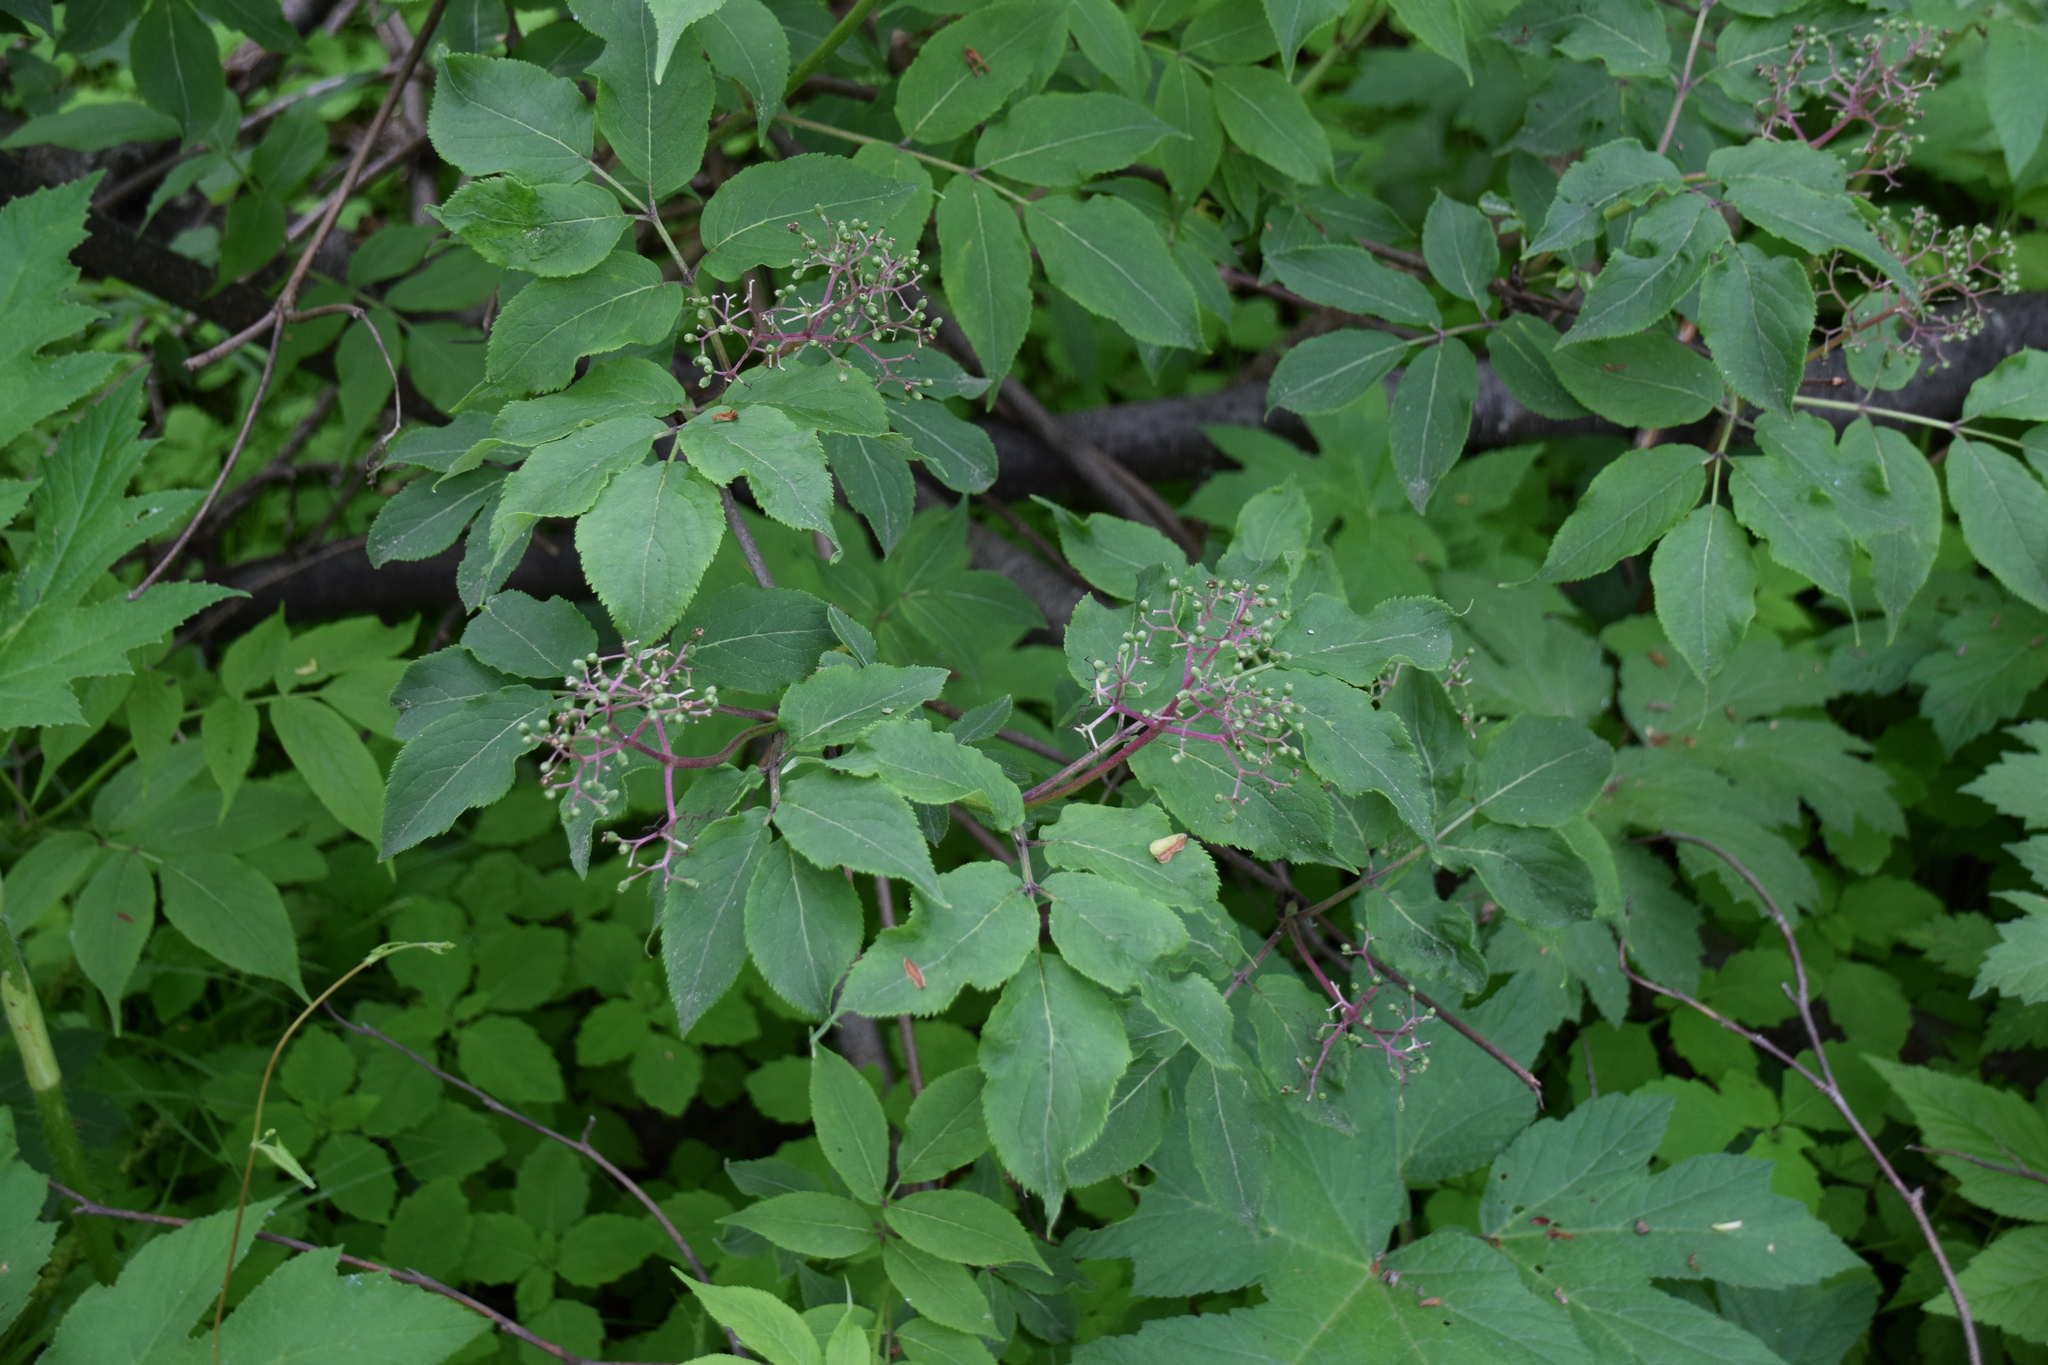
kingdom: Plantae
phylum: Tracheophyta
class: Magnoliopsida
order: Dipsacales
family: Viburnaceae
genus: Sambucus
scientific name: Sambucus racemosa
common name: Red-berried elder
